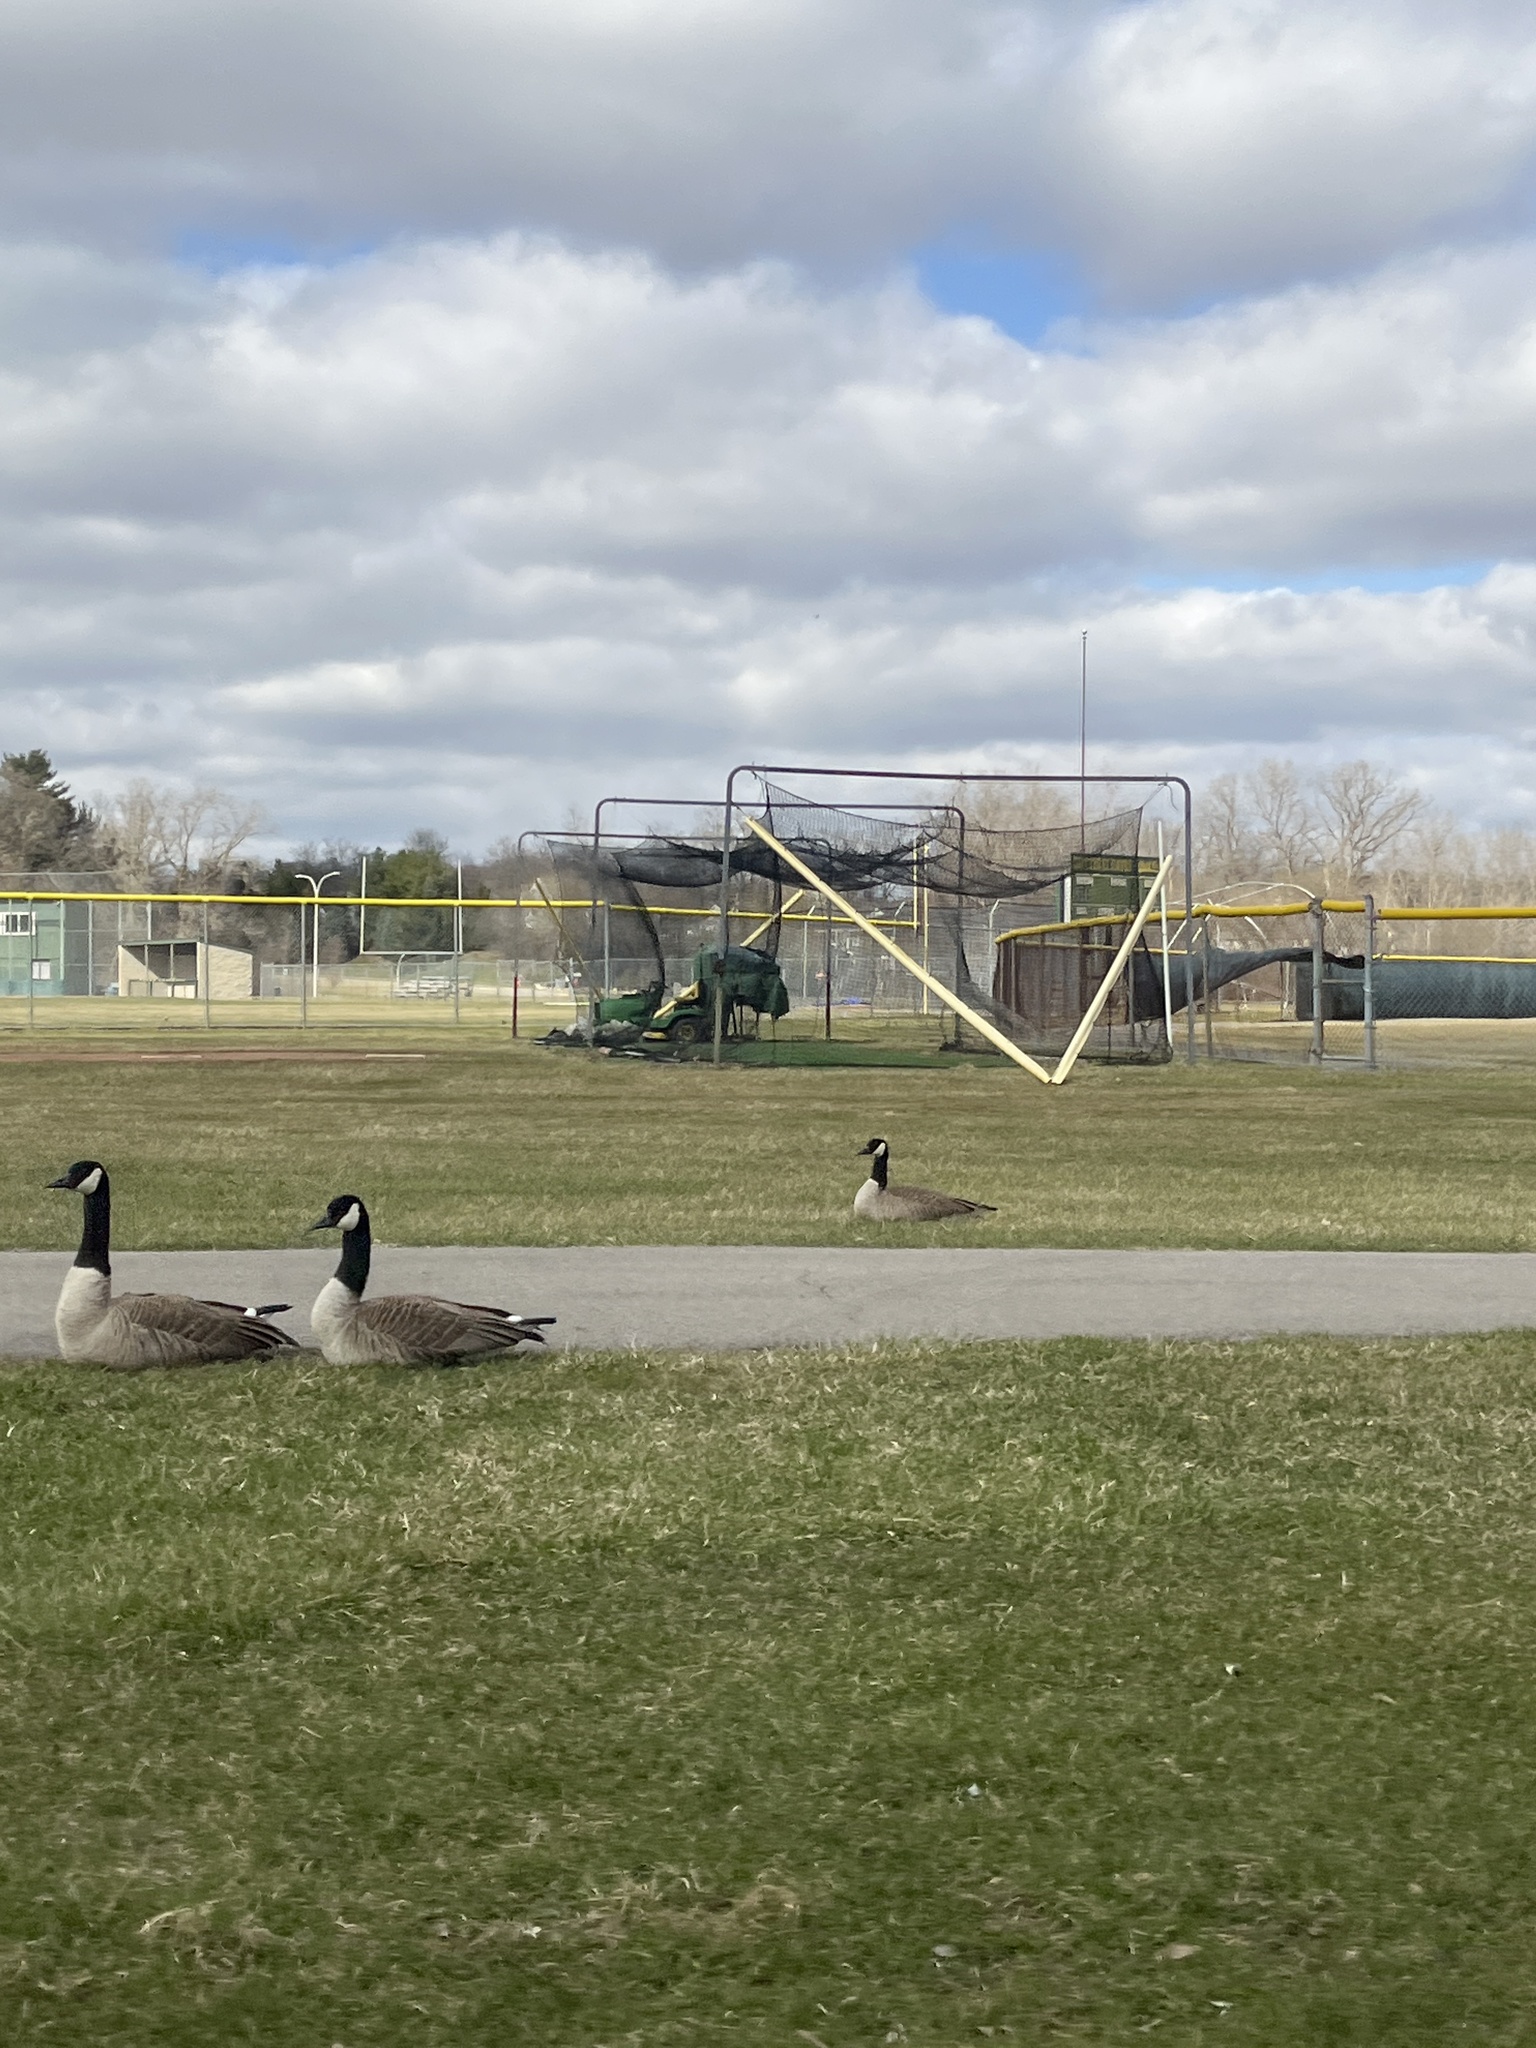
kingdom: Animalia
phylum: Chordata
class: Aves
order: Anseriformes
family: Anatidae
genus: Branta
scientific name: Branta canadensis
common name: Canada goose
